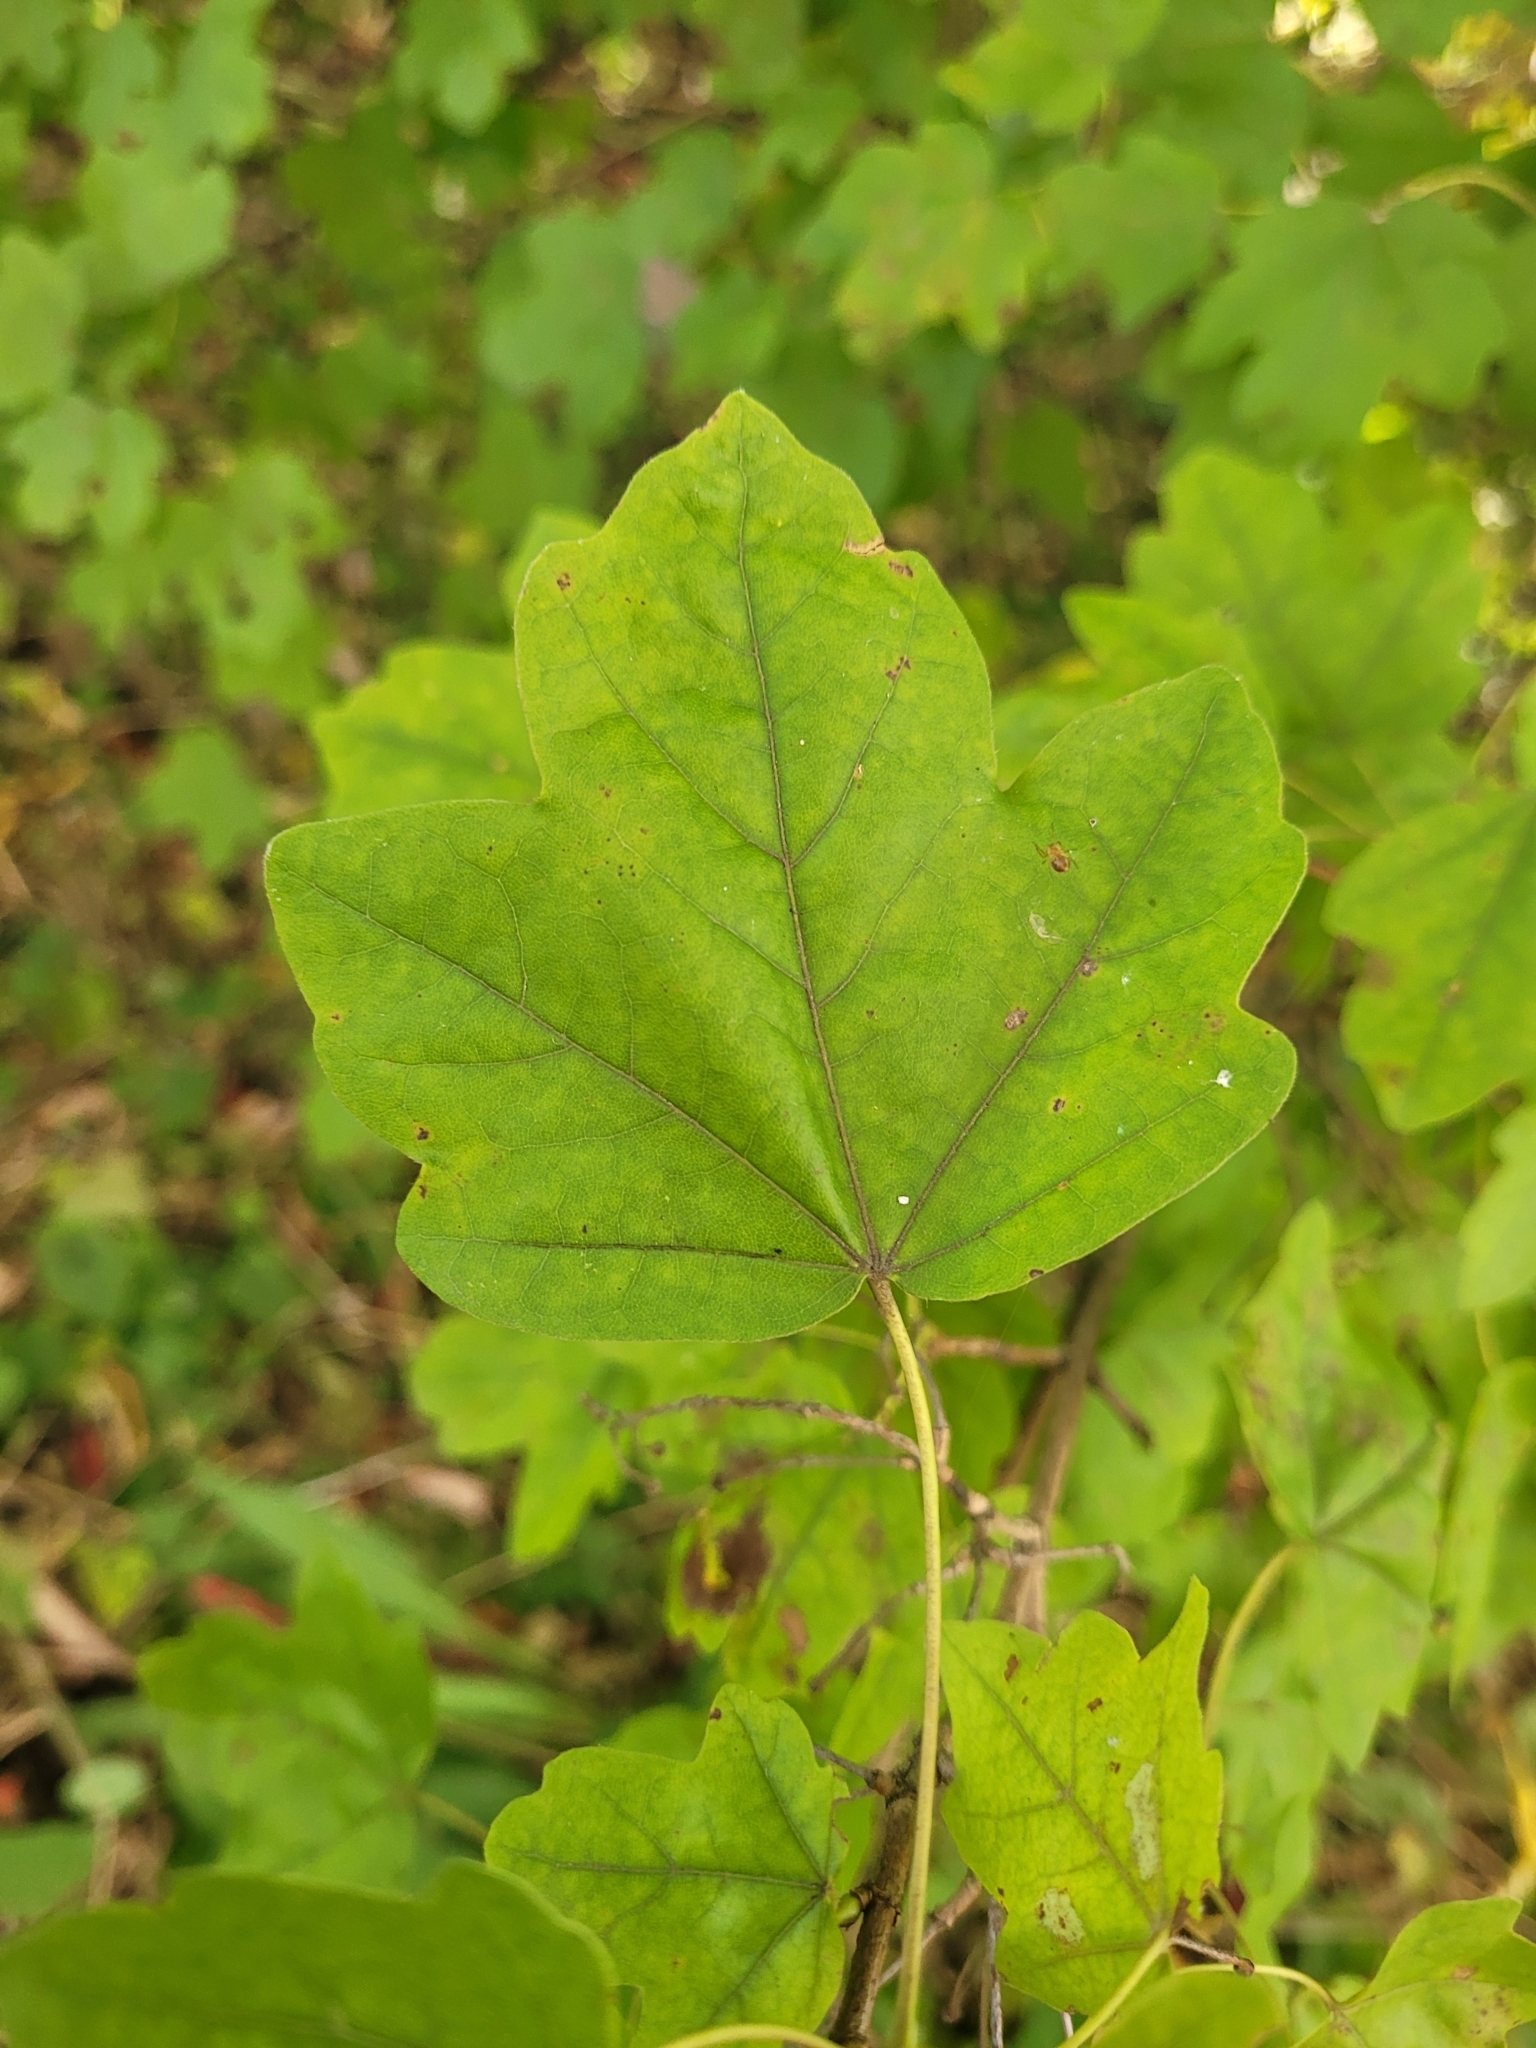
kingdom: Plantae
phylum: Tracheophyta
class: Magnoliopsida
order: Sapindales
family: Sapindaceae
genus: Acer
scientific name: Acer campestre
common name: Field maple
